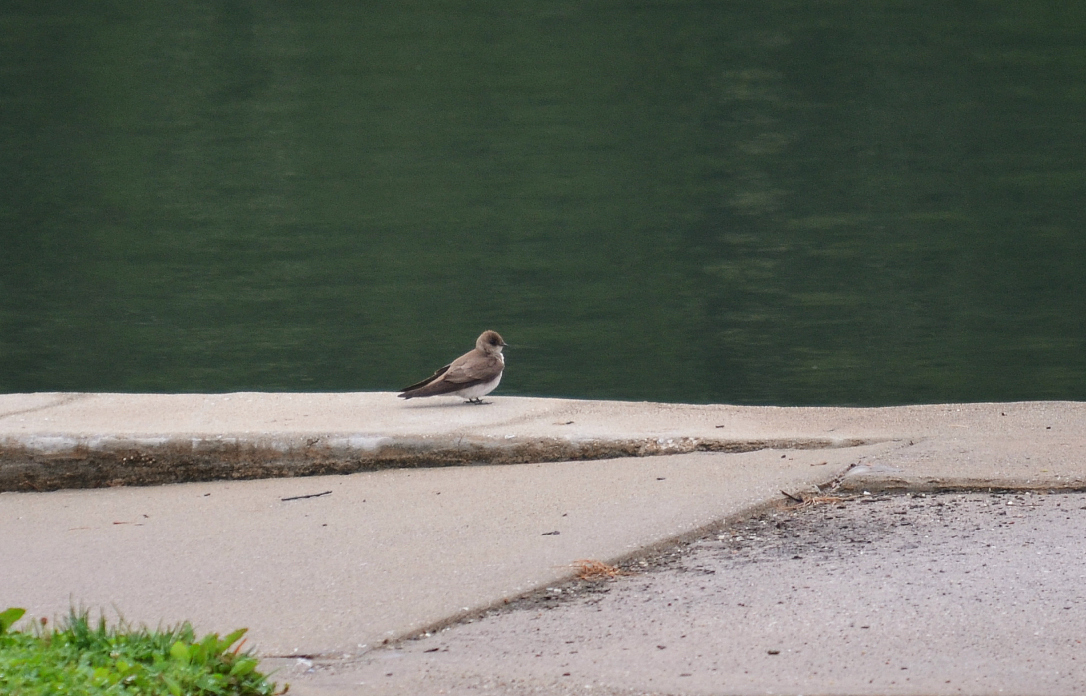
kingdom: Animalia
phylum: Chordata
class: Aves
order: Passeriformes
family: Hirundinidae
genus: Stelgidopteryx
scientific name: Stelgidopteryx serripennis
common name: Northern rough-winged swallow
